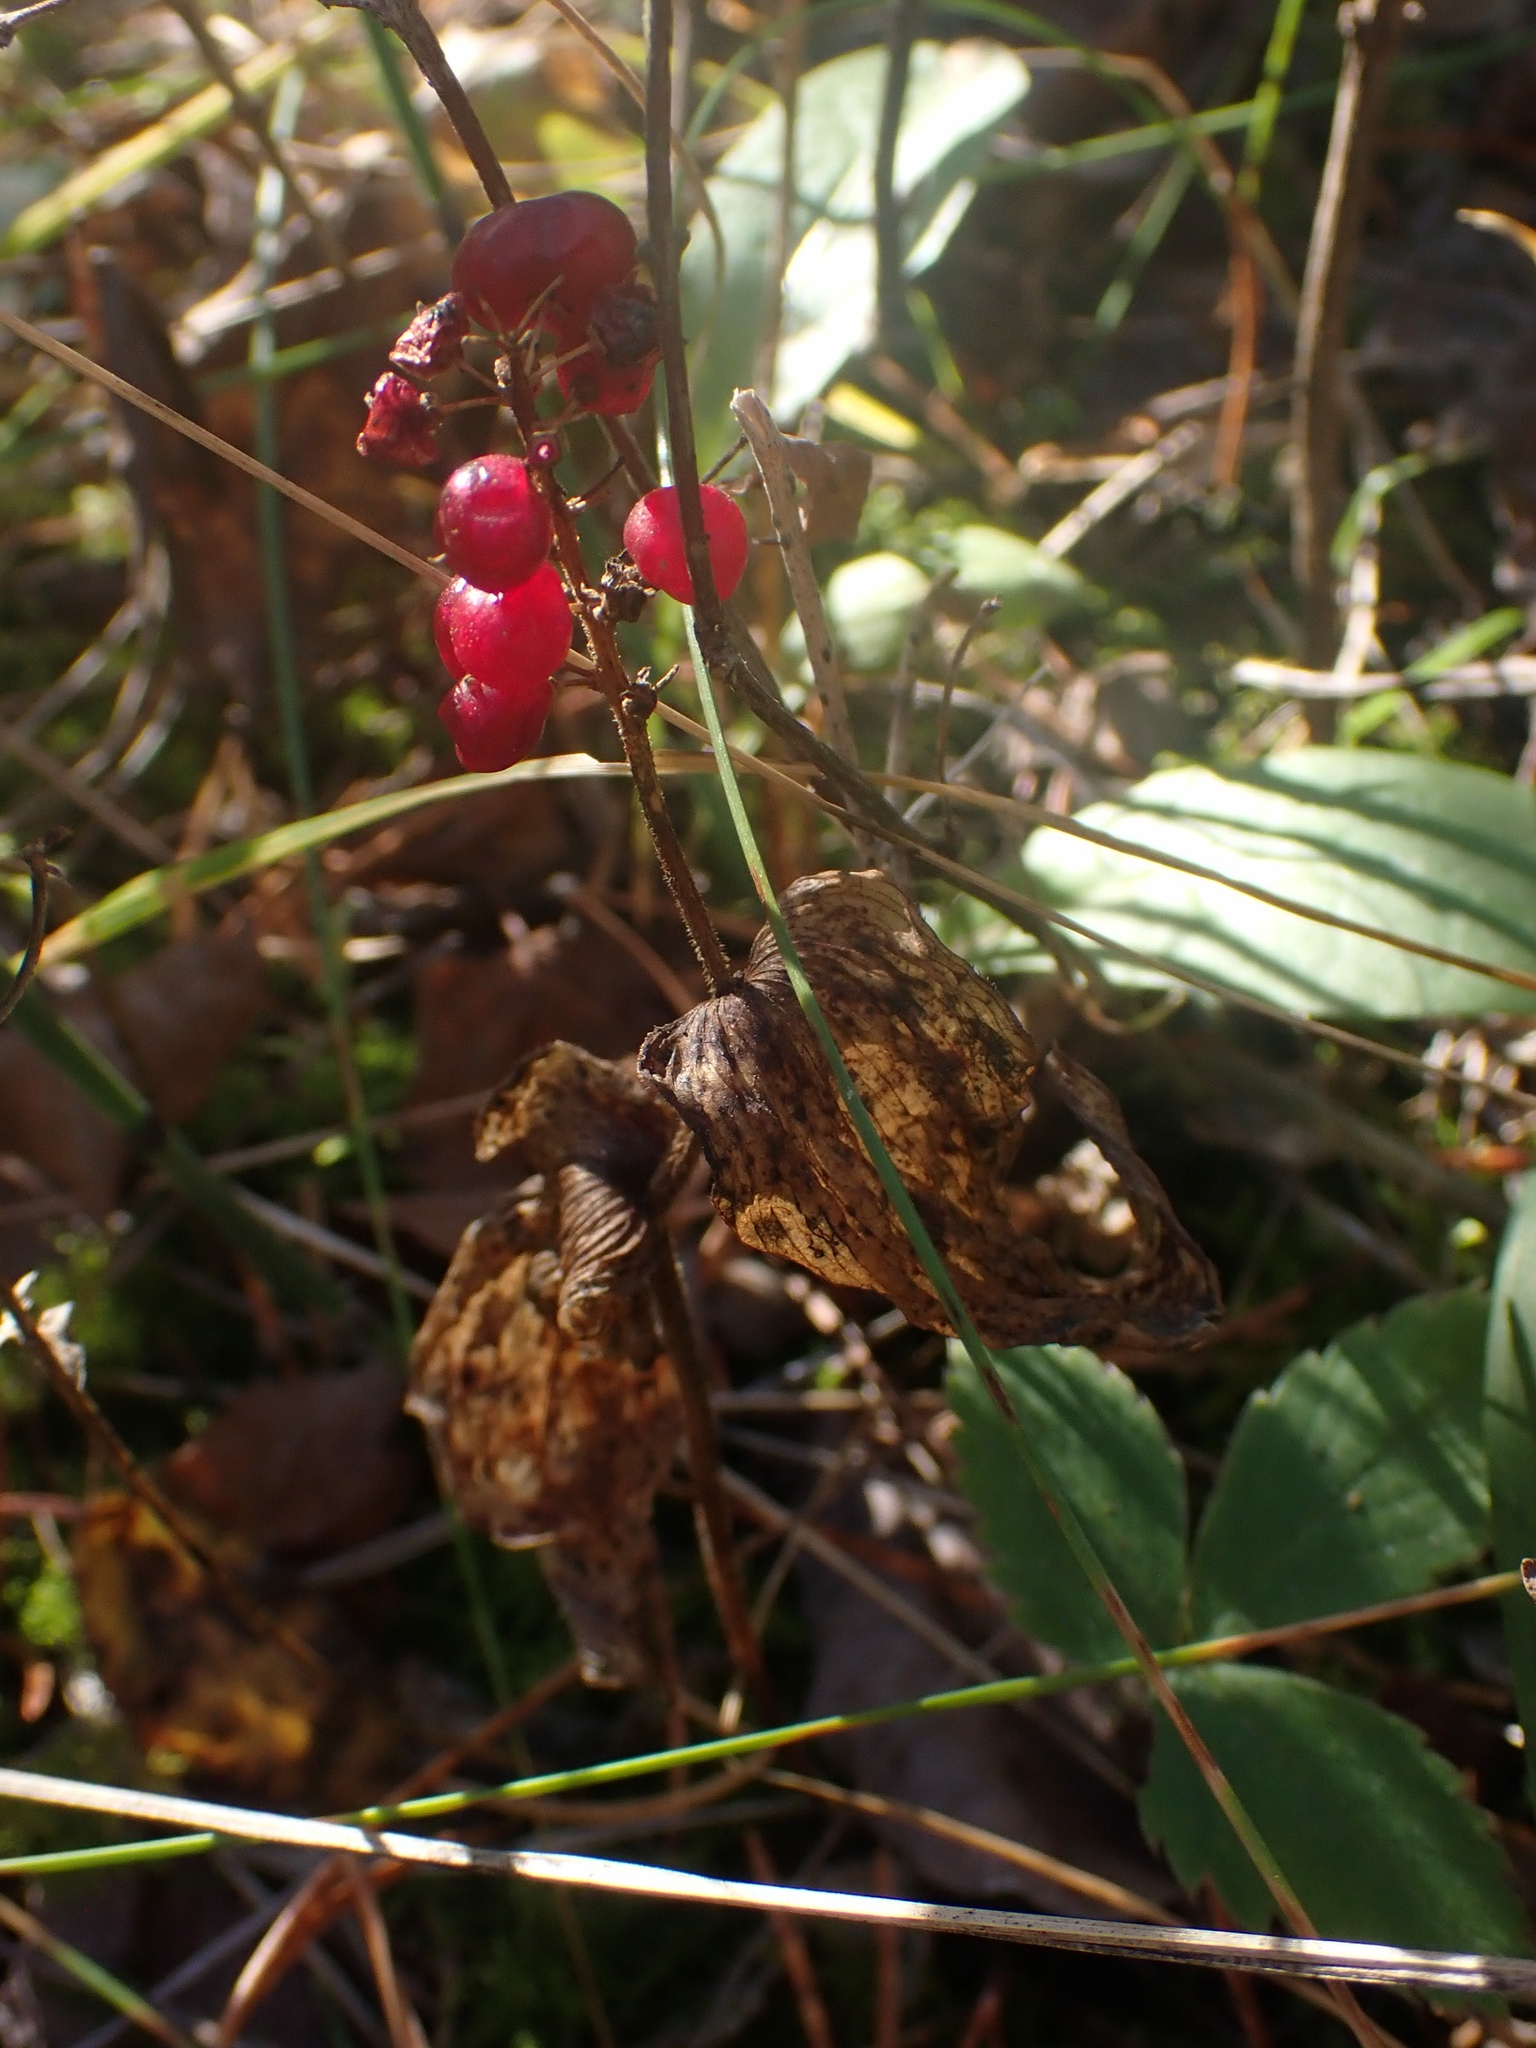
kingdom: Plantae
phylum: Tracheophyta
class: Liliopsida
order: Asparagales
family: Asparagaceae
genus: Maianthemum
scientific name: Maianthemum canadense
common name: False lily-of-the-valley
